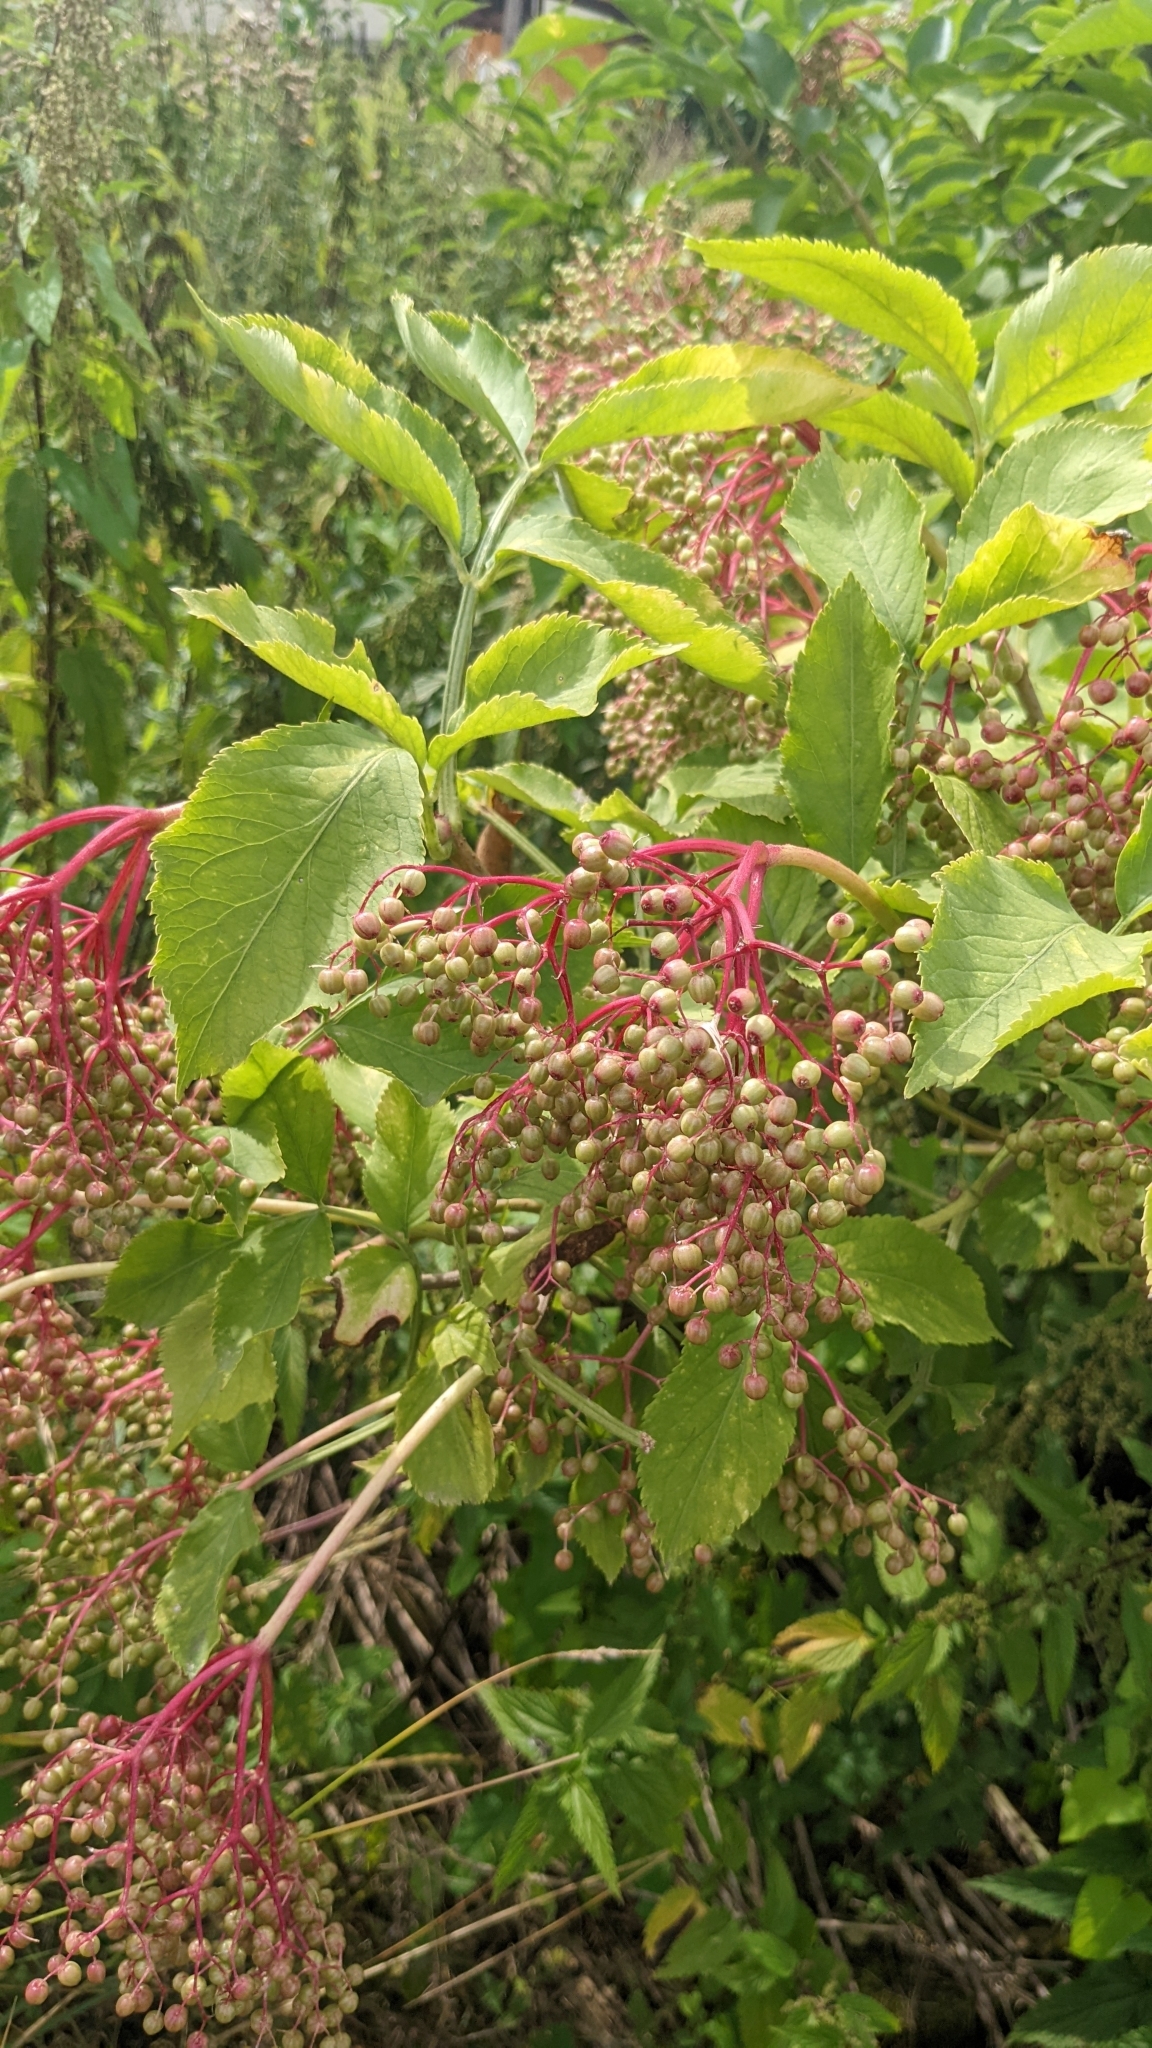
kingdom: Plantae
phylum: Tracheophyta
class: Magnoliopsida
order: Dipsacales
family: Viburnaceae
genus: Sambucus
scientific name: Sambucus nigra
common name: Elder
